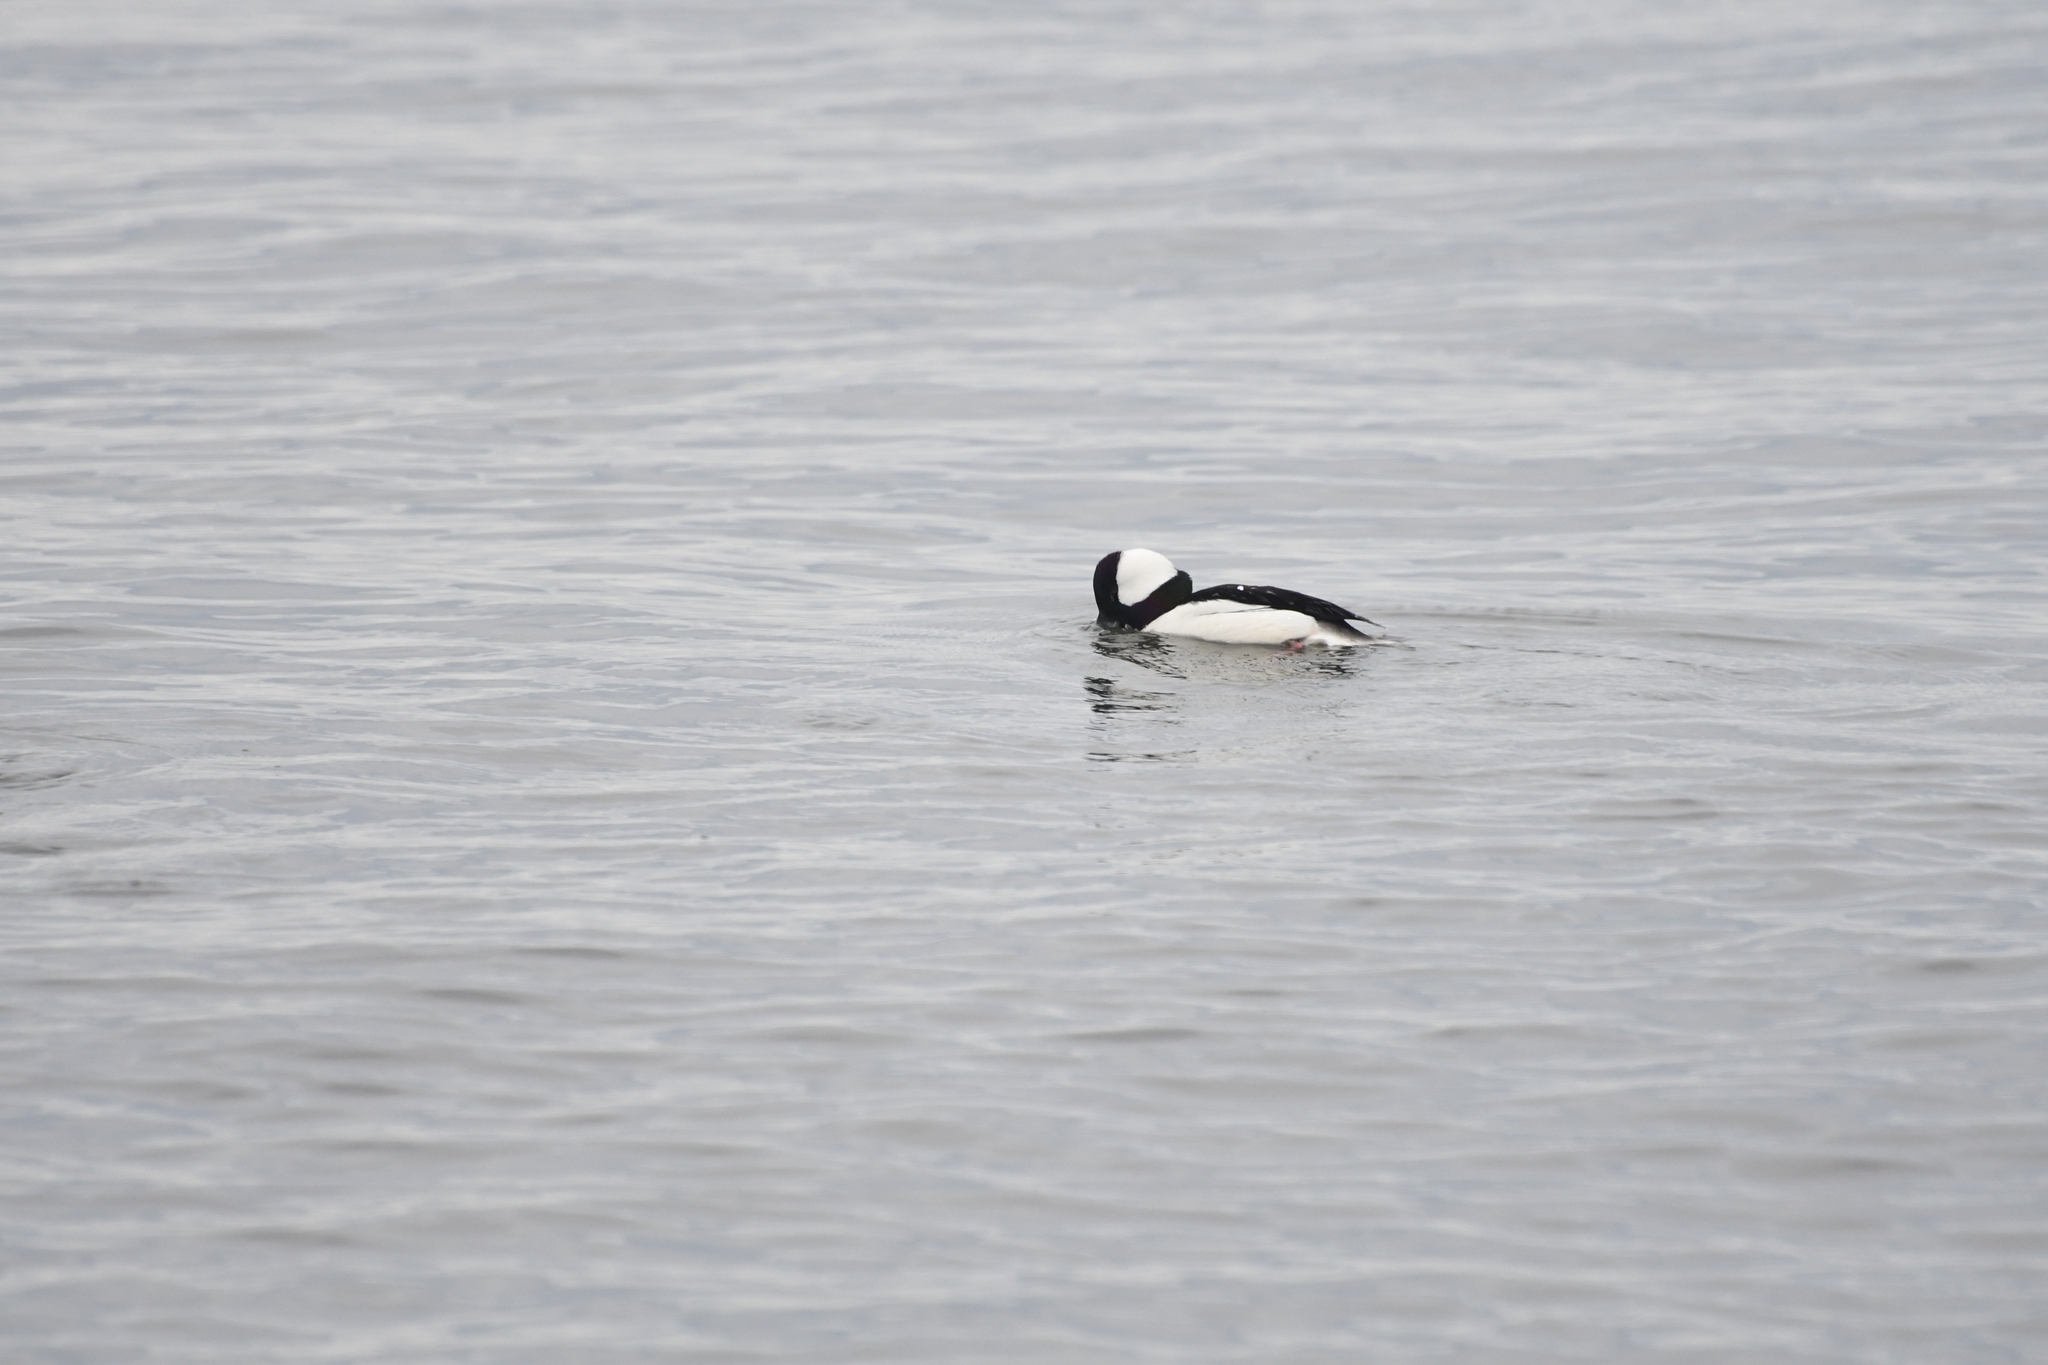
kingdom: Animalia
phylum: Chordata
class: Aves
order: Anseriformes
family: Anatidae
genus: Bucephala
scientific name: Bucephala albeola
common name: Bufflehead
